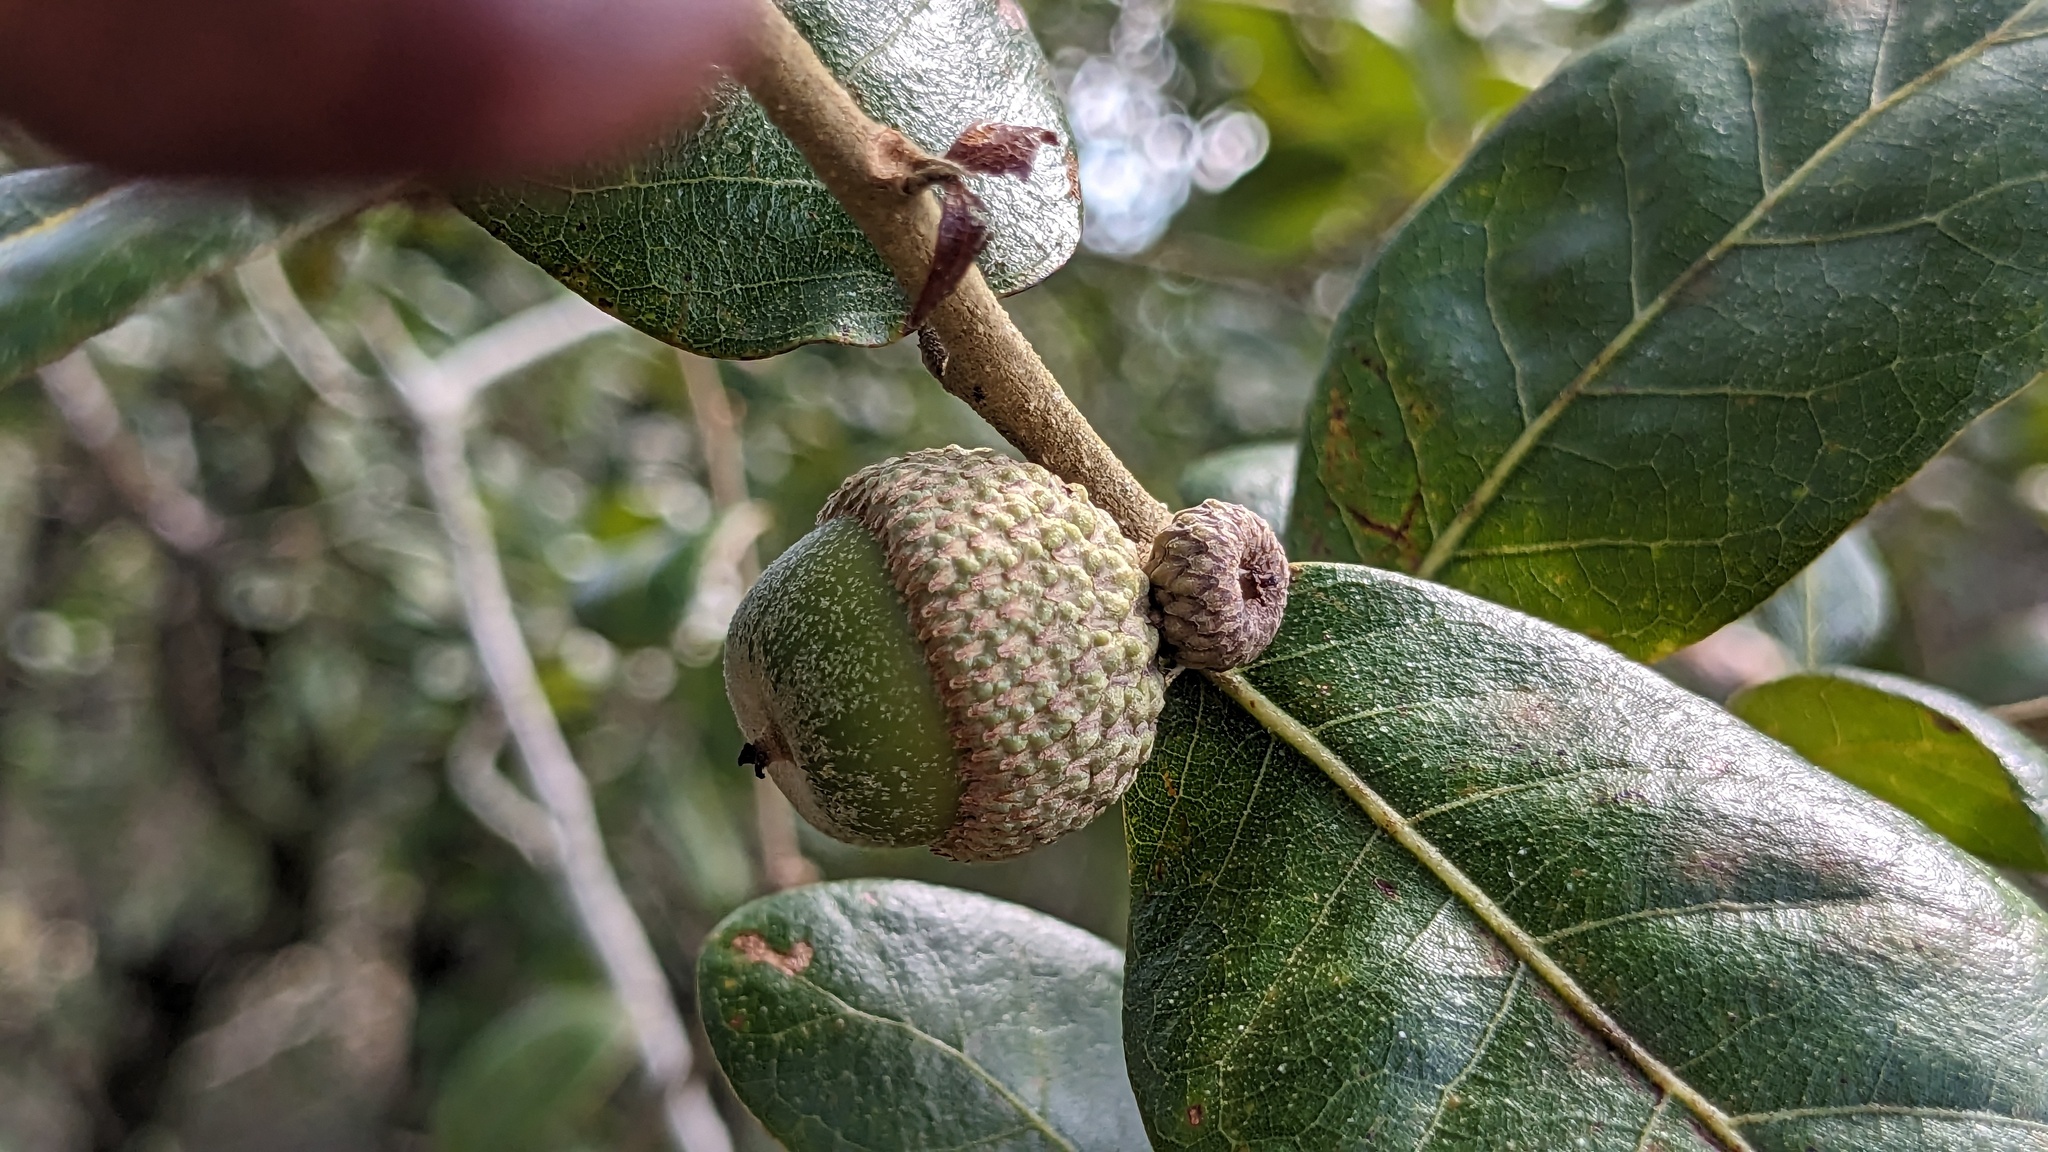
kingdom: Plantae
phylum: Tracheophyta
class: Magnoliopsida
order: Fagales
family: Fagaceae
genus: Quercus
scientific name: Quercus chapmanii
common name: Chapman oak
